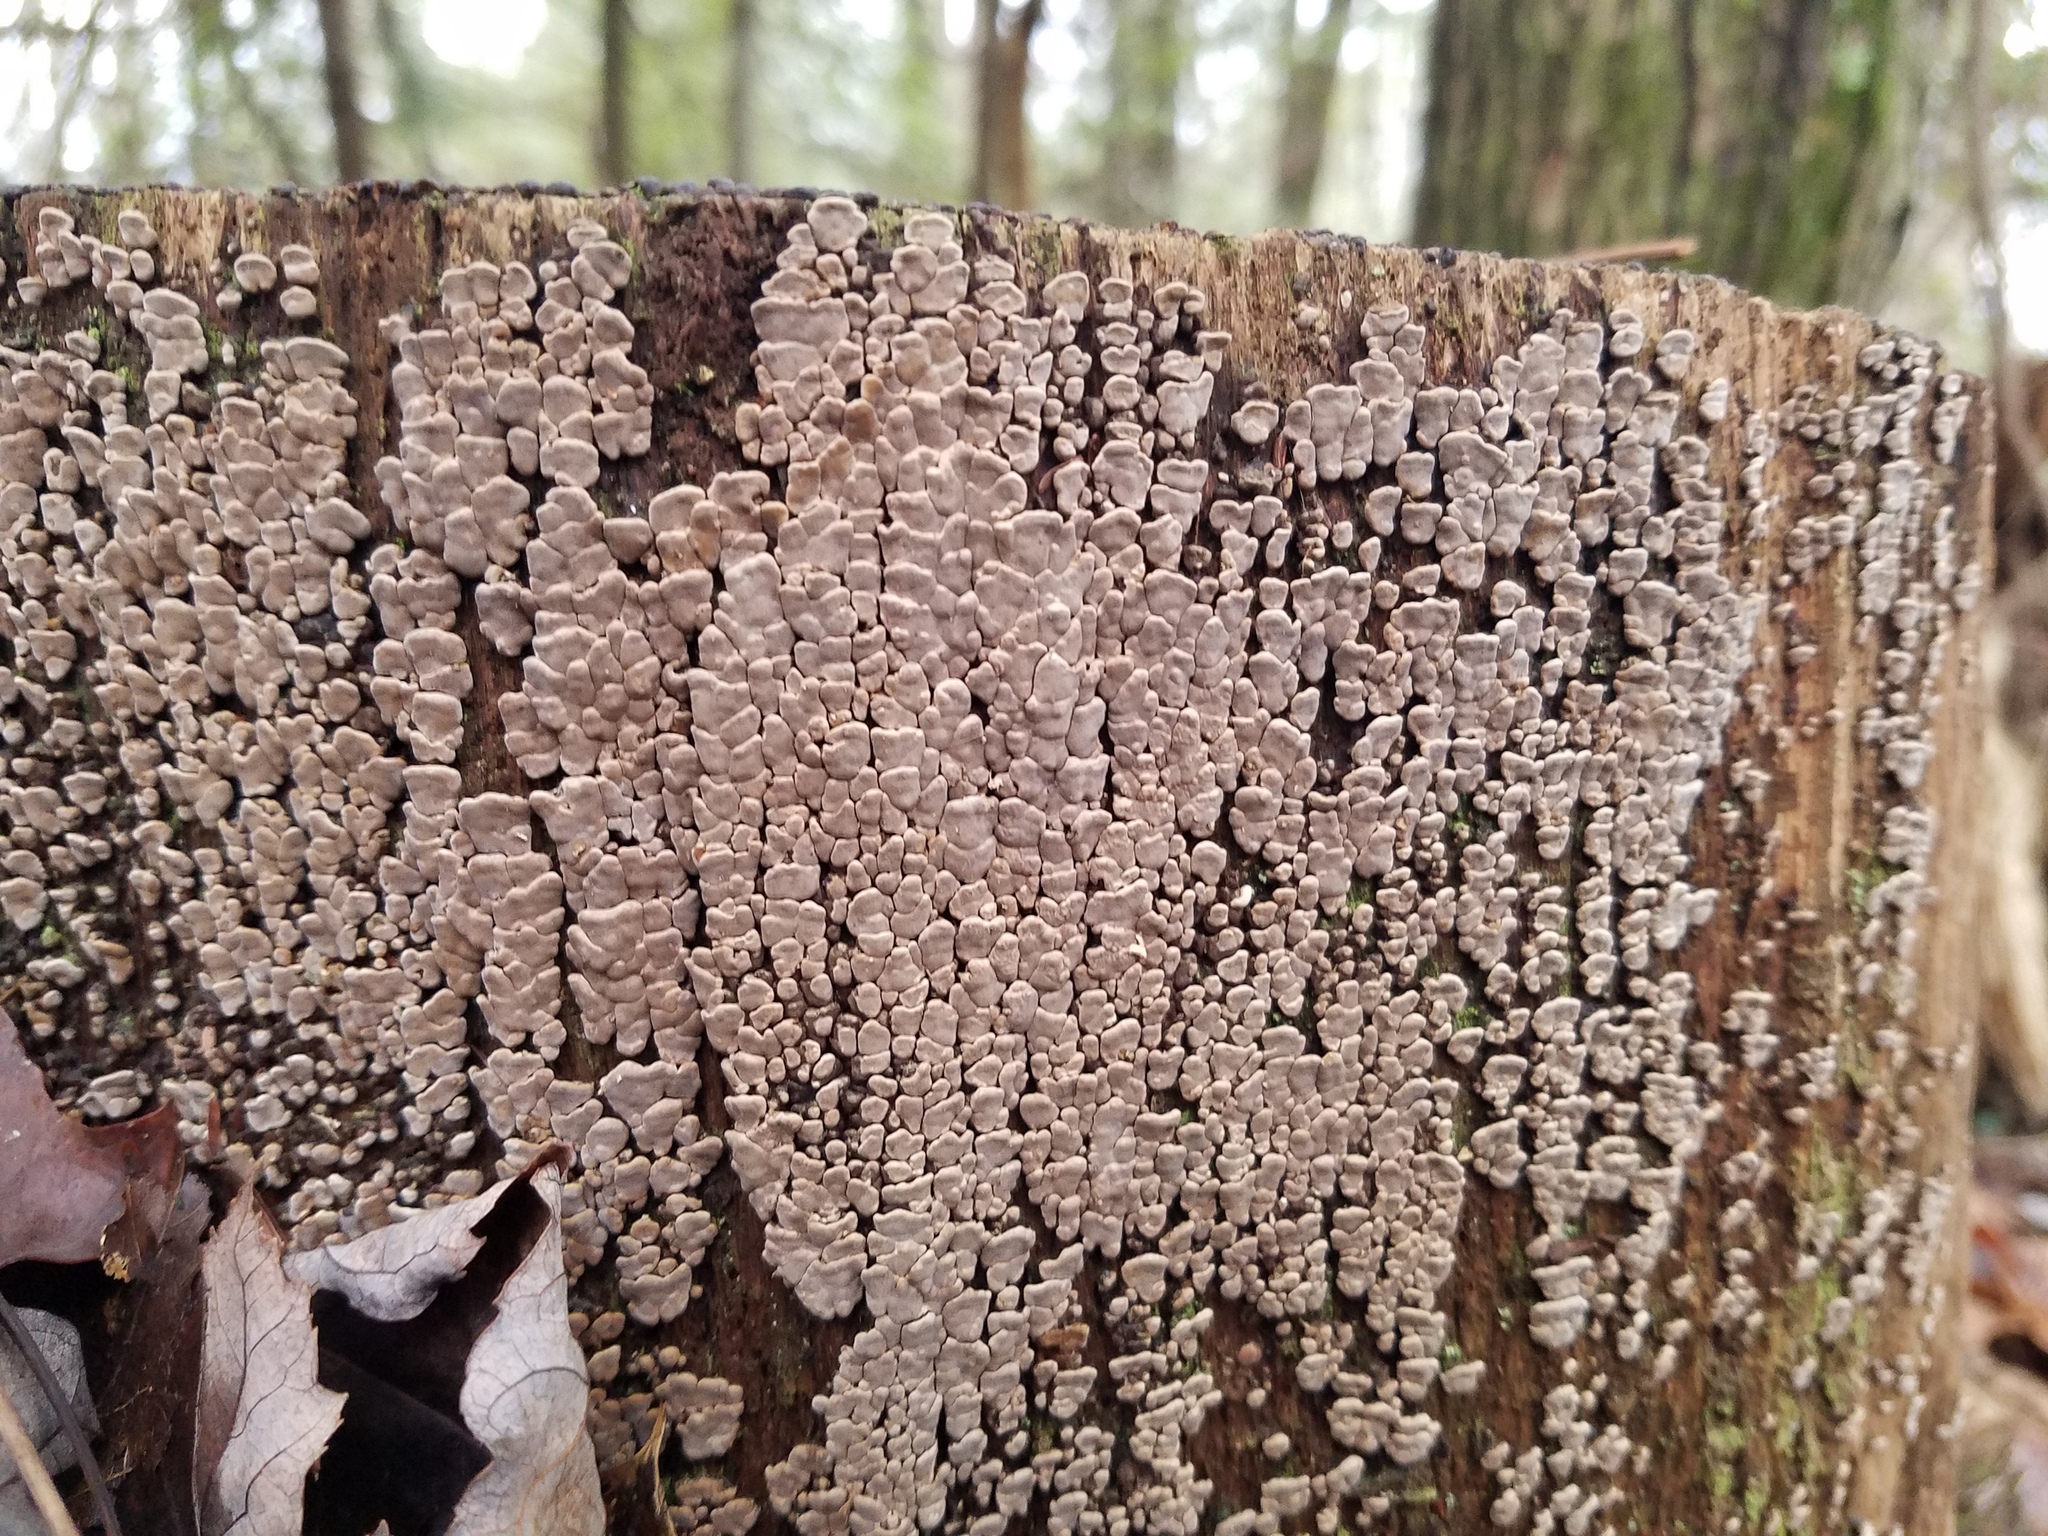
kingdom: Fungi
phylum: Basidiomycota
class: Agaricomycetes
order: Russulales
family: Stereaceae
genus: Xylobolus
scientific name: Xylobolus frustulatus
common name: Ceramic parchment
